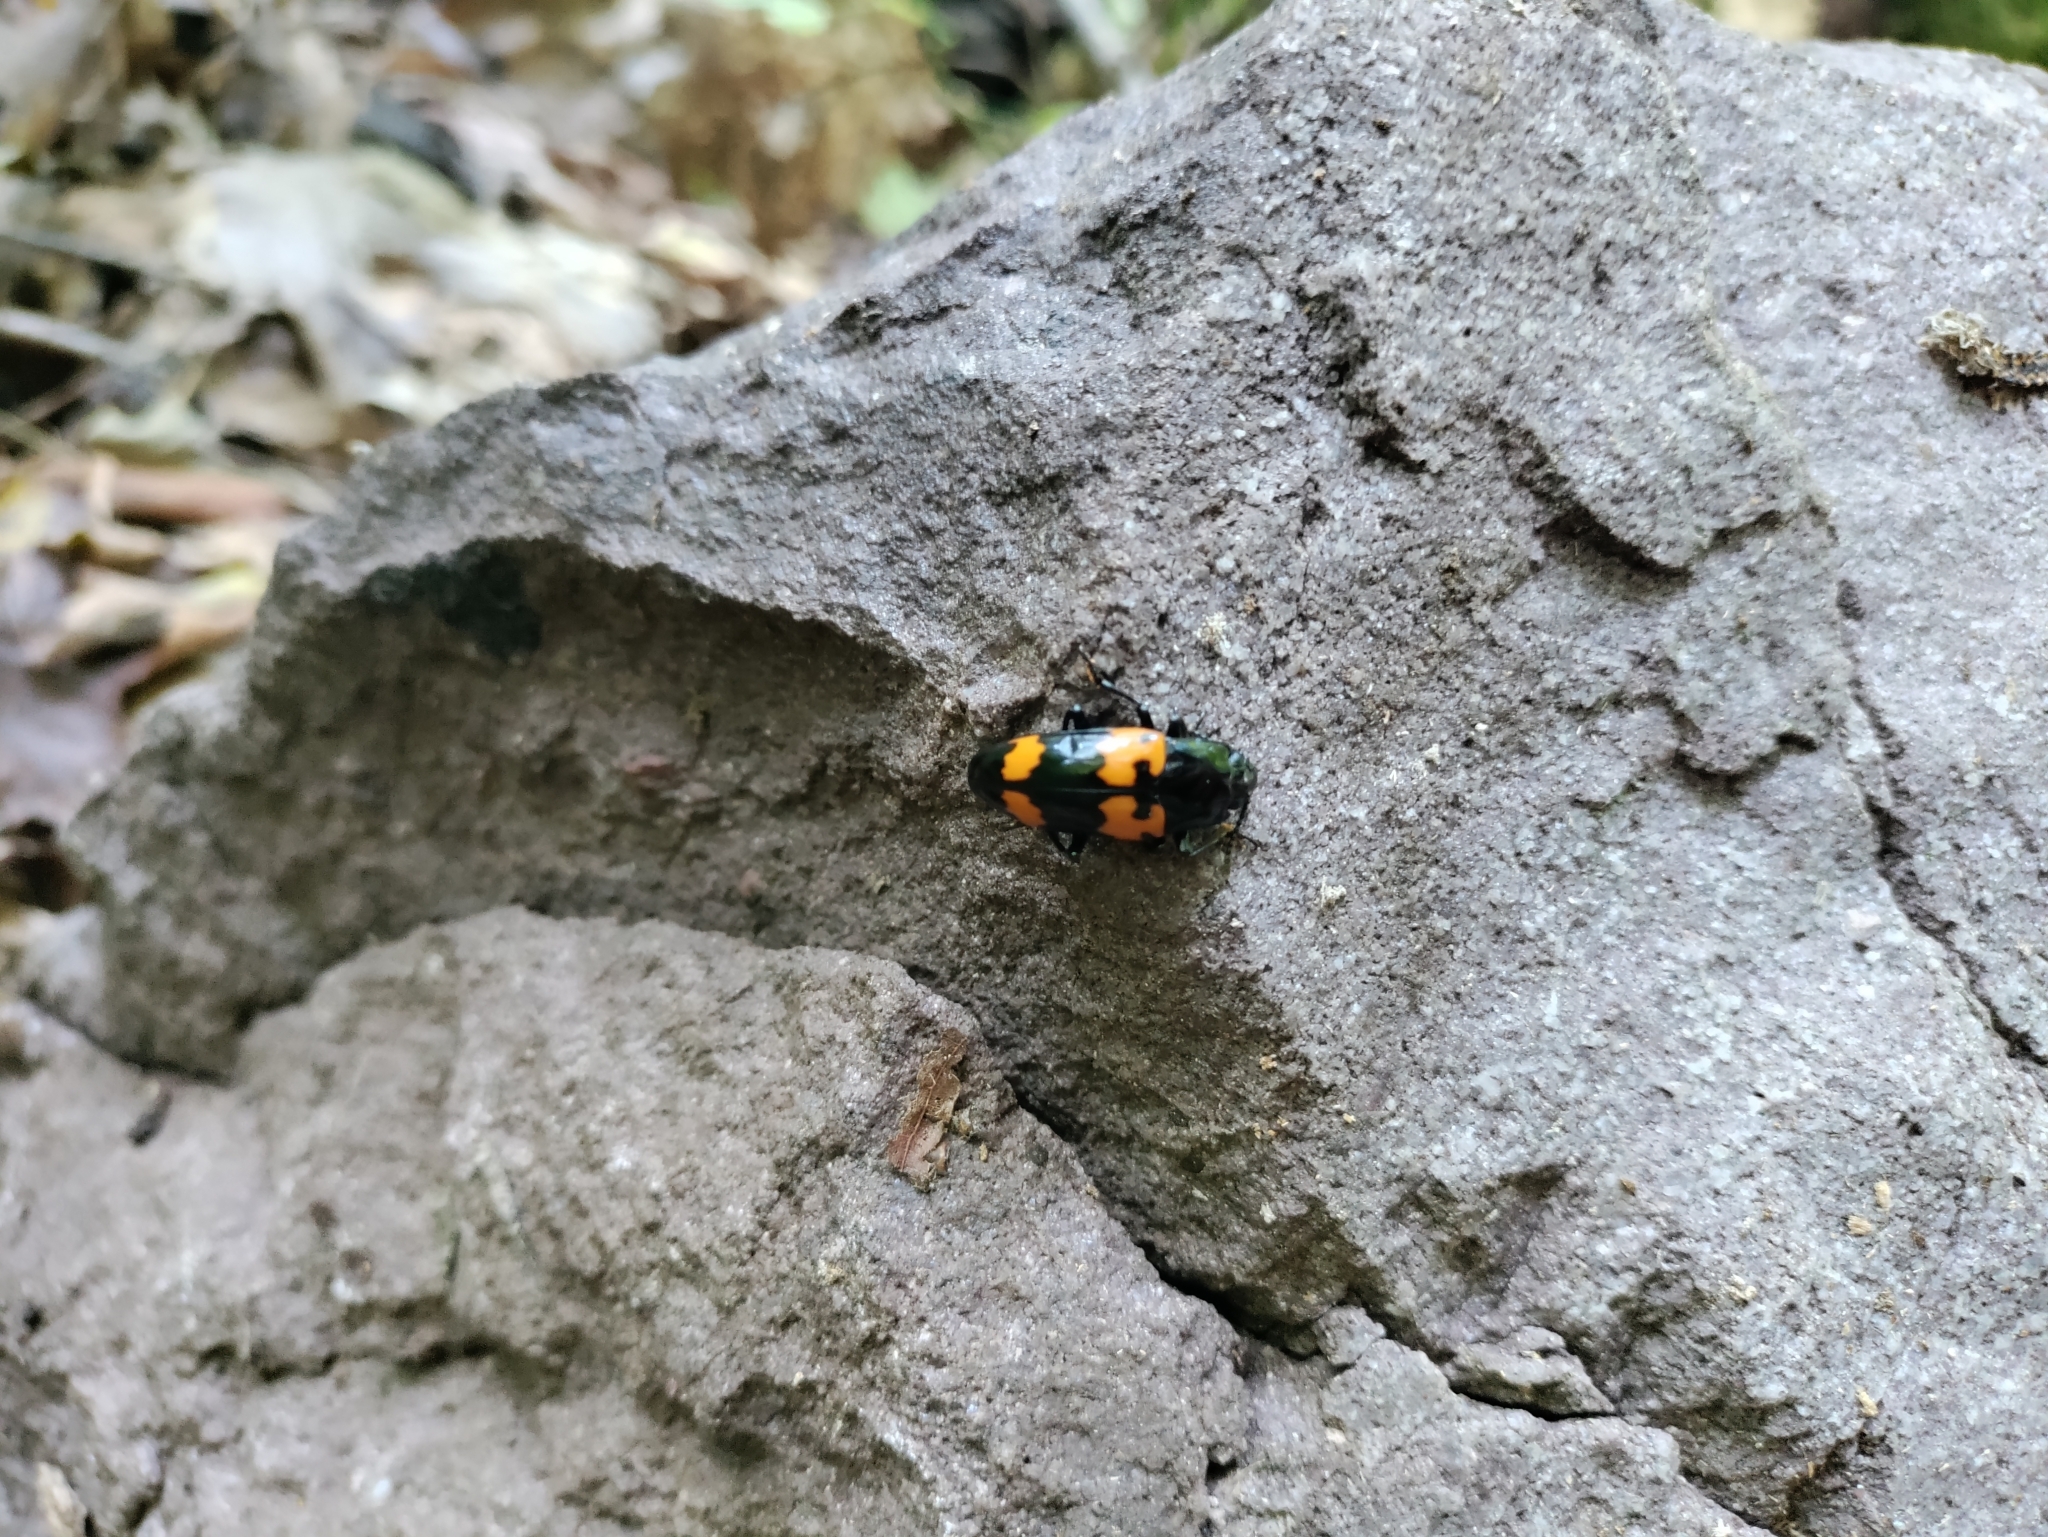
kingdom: Animalia
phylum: Arthropoda
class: Insecta
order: Coleoptera
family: Erotylidae
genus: Megalodacne
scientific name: Megalodacne heros
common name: Pleasing fungus beetle
